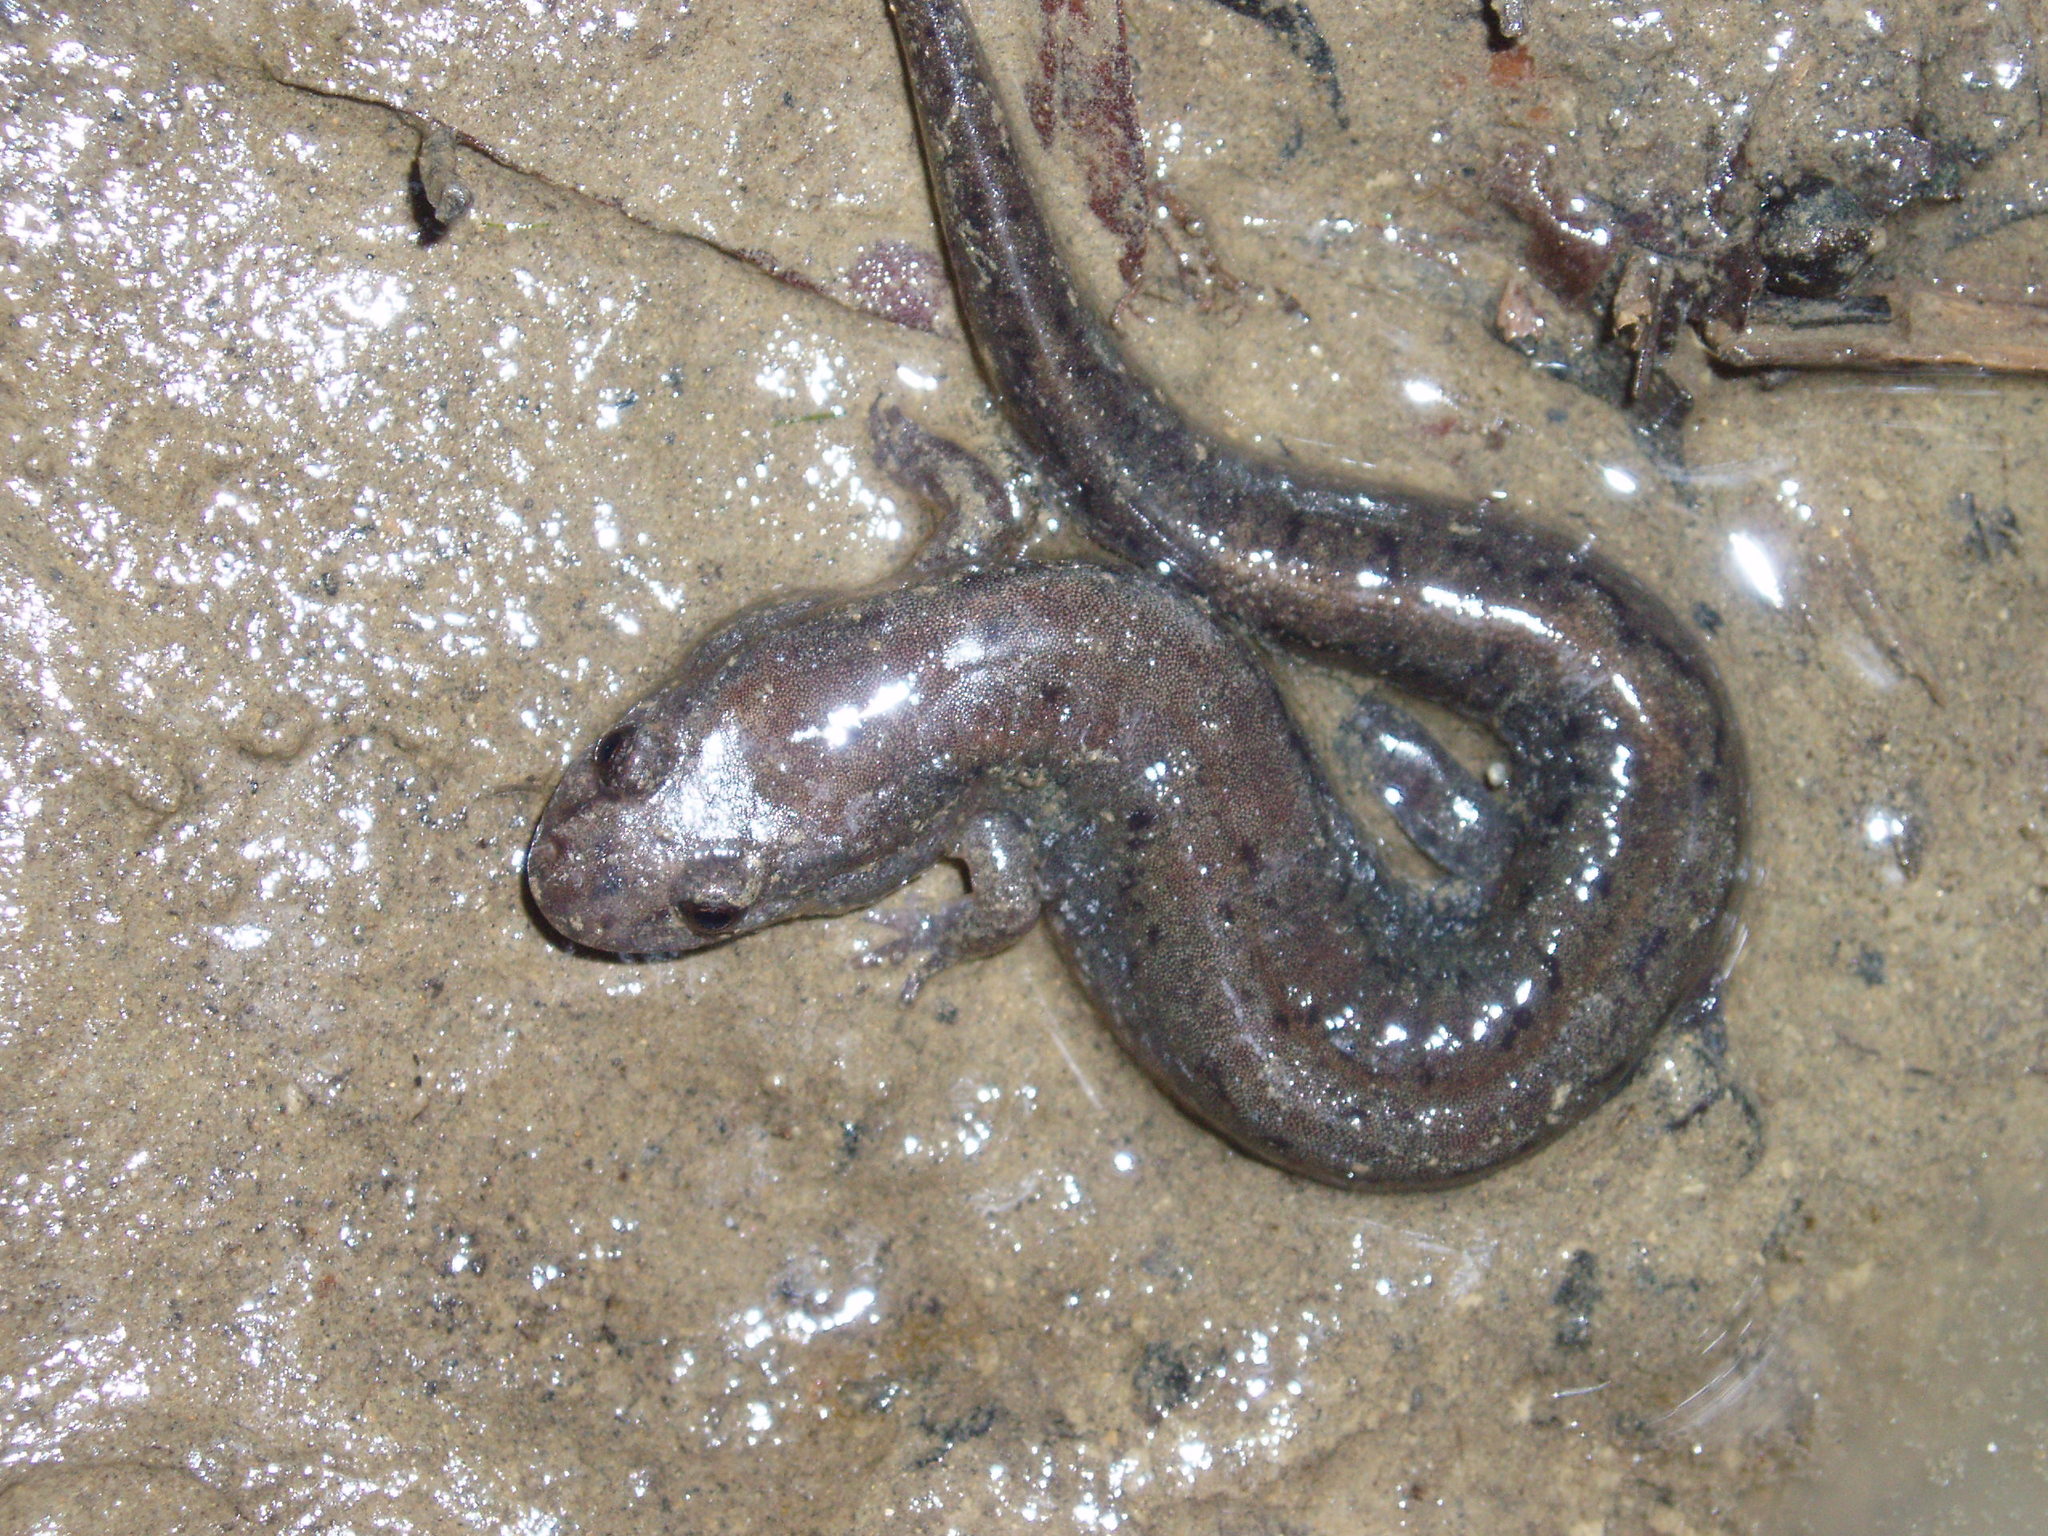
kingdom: Animalia
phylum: Chordata
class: Amphibia
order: Caudata
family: Plethodontidae
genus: Desmognathus
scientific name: Desmognathus fuscus
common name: Northern dusky salamander
